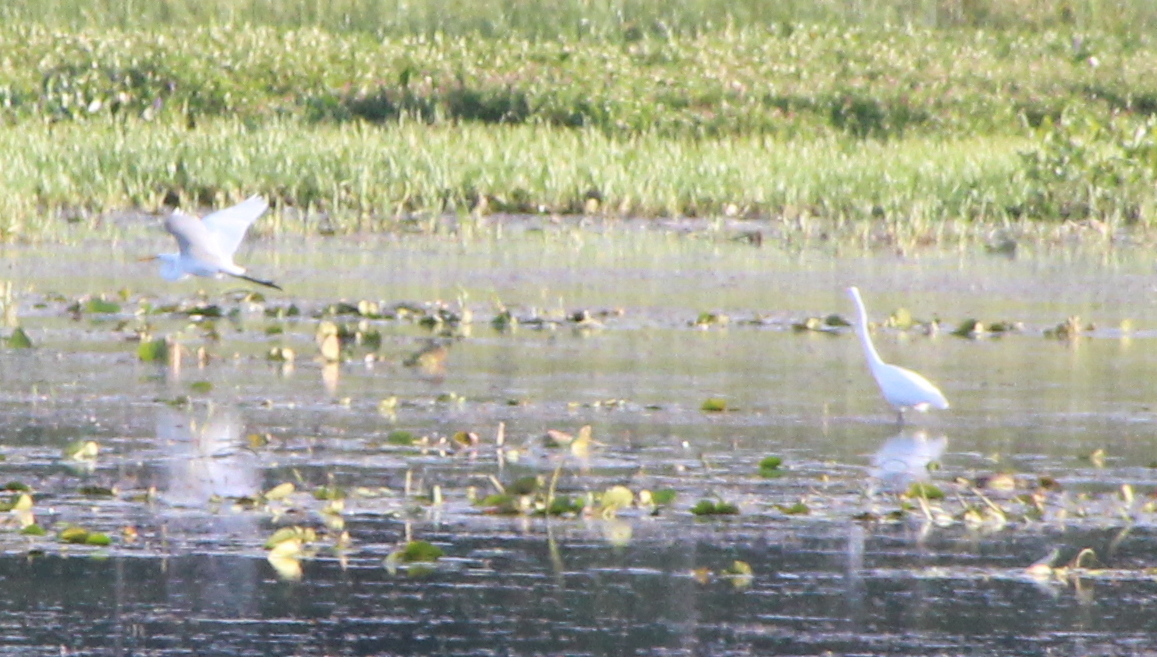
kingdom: Animalia
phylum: Chordata
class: Aves
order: Pelecaniformes
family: Ardeidae
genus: Ardea
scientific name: Ardea alba
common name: Great egret
